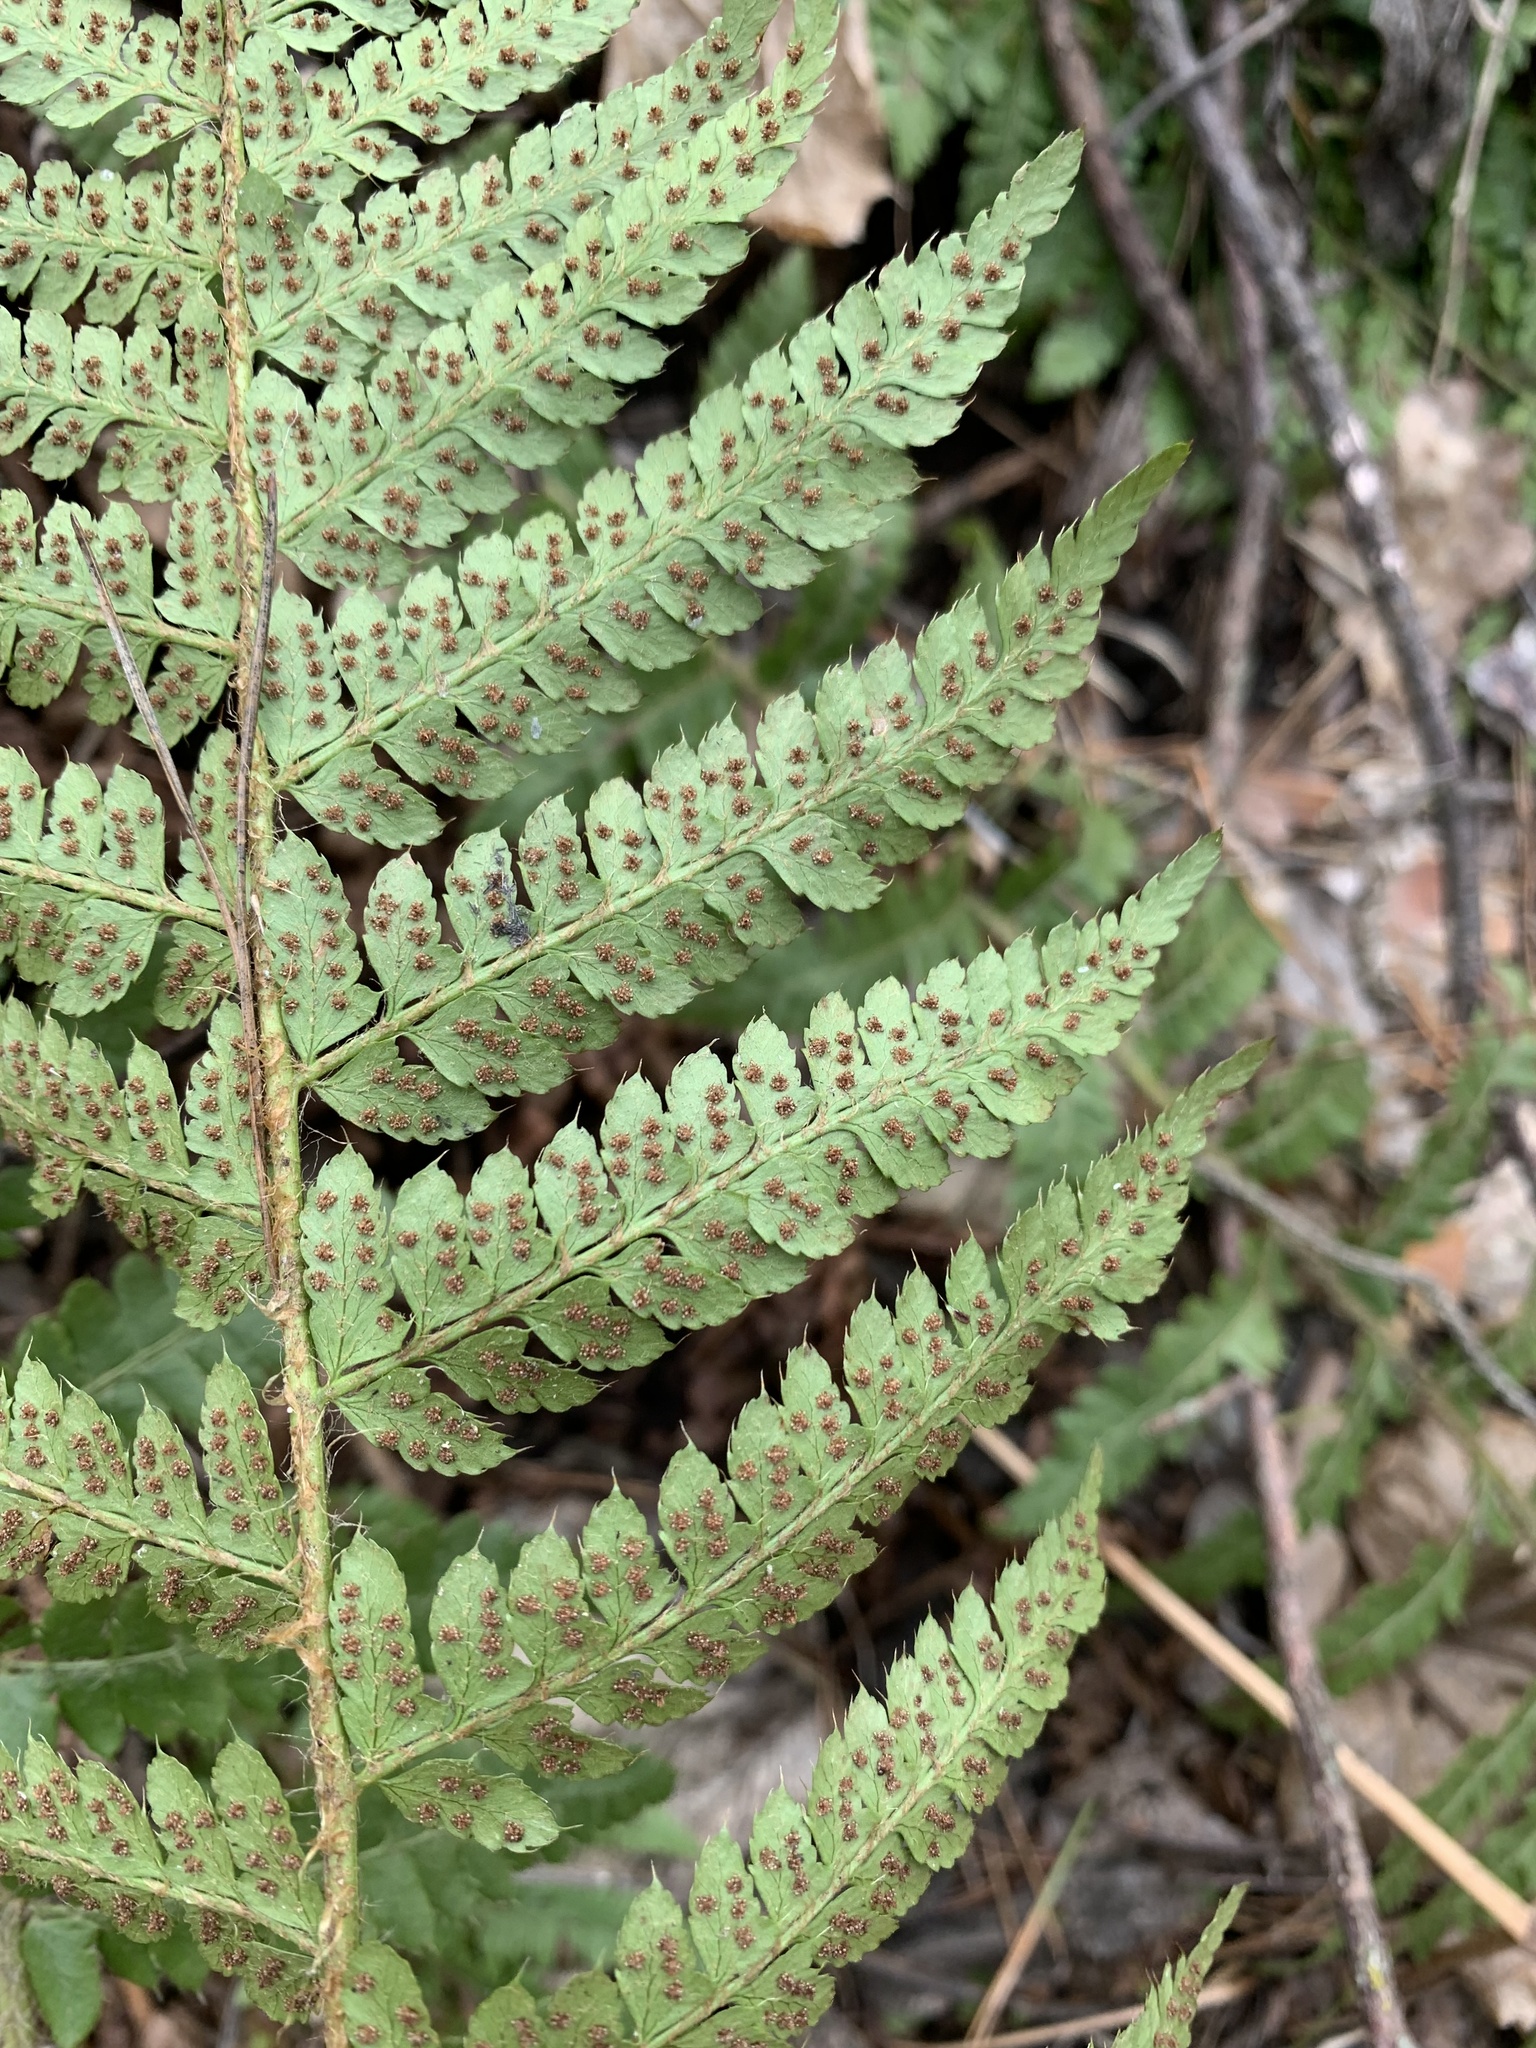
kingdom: Plantae
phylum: Tracheophyta
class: Polypodiopsida
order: Polypodiales
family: Dryopteridaceae
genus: Polystichum
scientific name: Polystichum braunii
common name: Braun's holly fern
